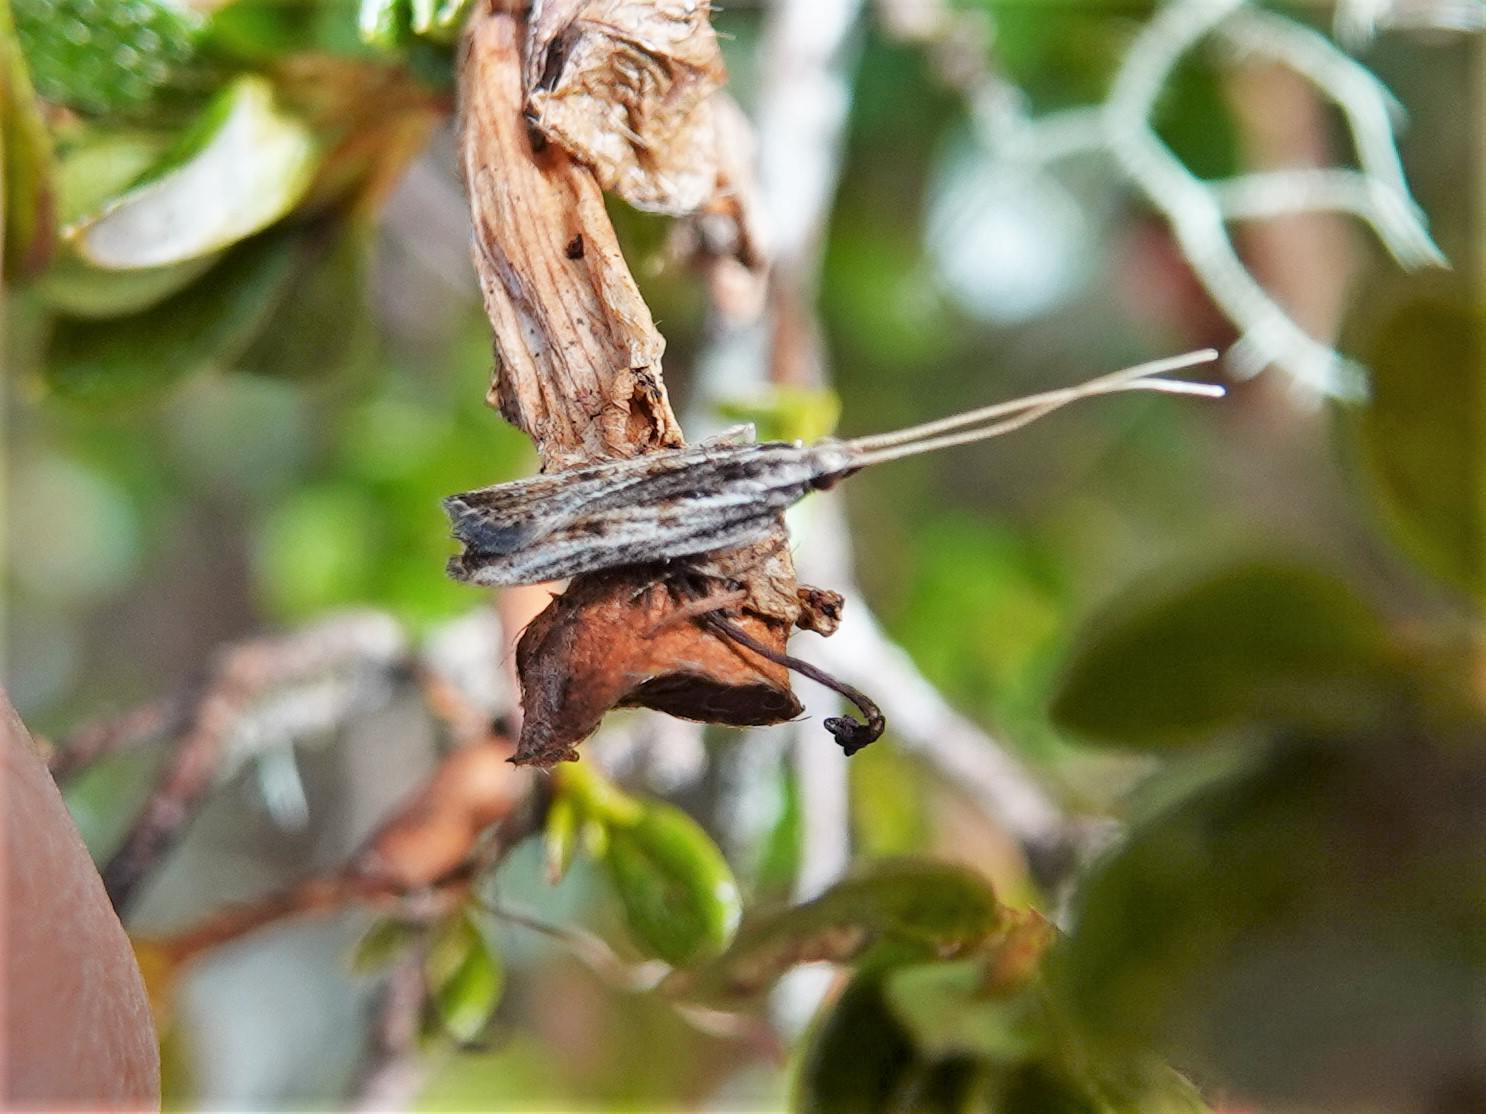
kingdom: Animalia
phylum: Arthropoda
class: Insecta
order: Lepidoptera
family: Lecithoceridae
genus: Sarisophora
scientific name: Sarisophora leucoscia
